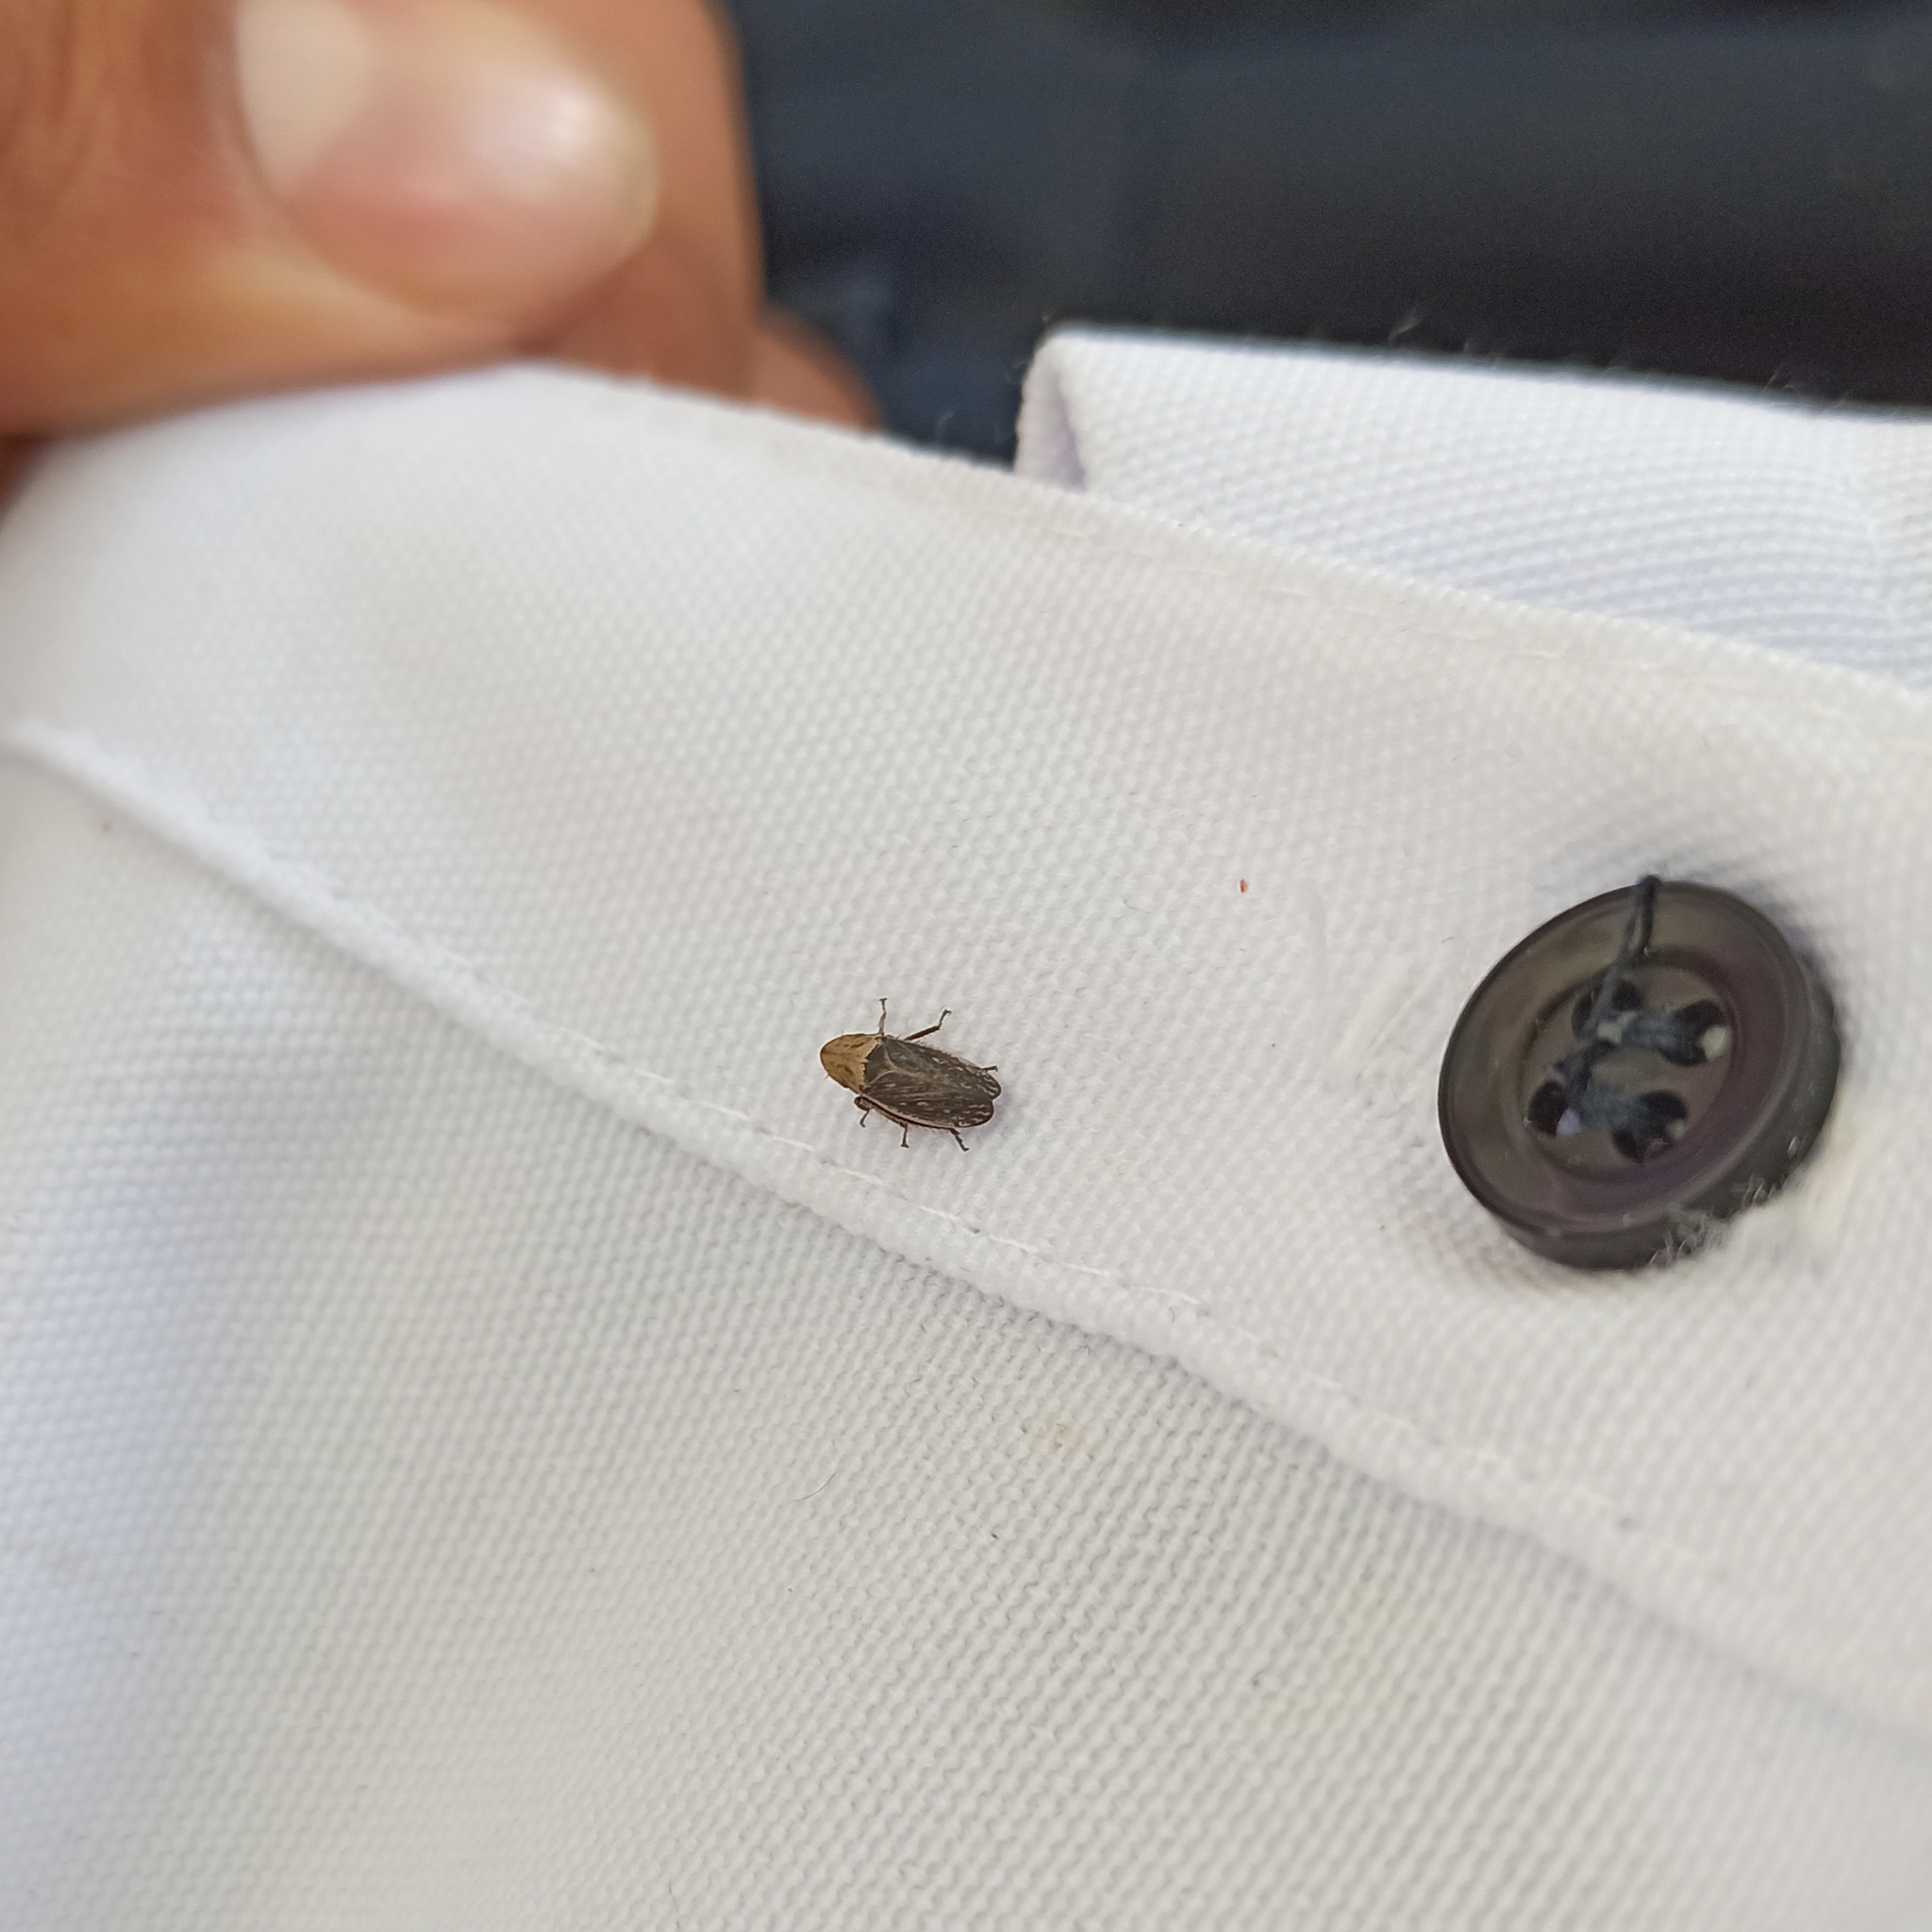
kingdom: Animalia
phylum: Arthropoda
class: Insecta
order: Hemiptera
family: Cicadellidae
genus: Prairiana
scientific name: Prairiana sidana
